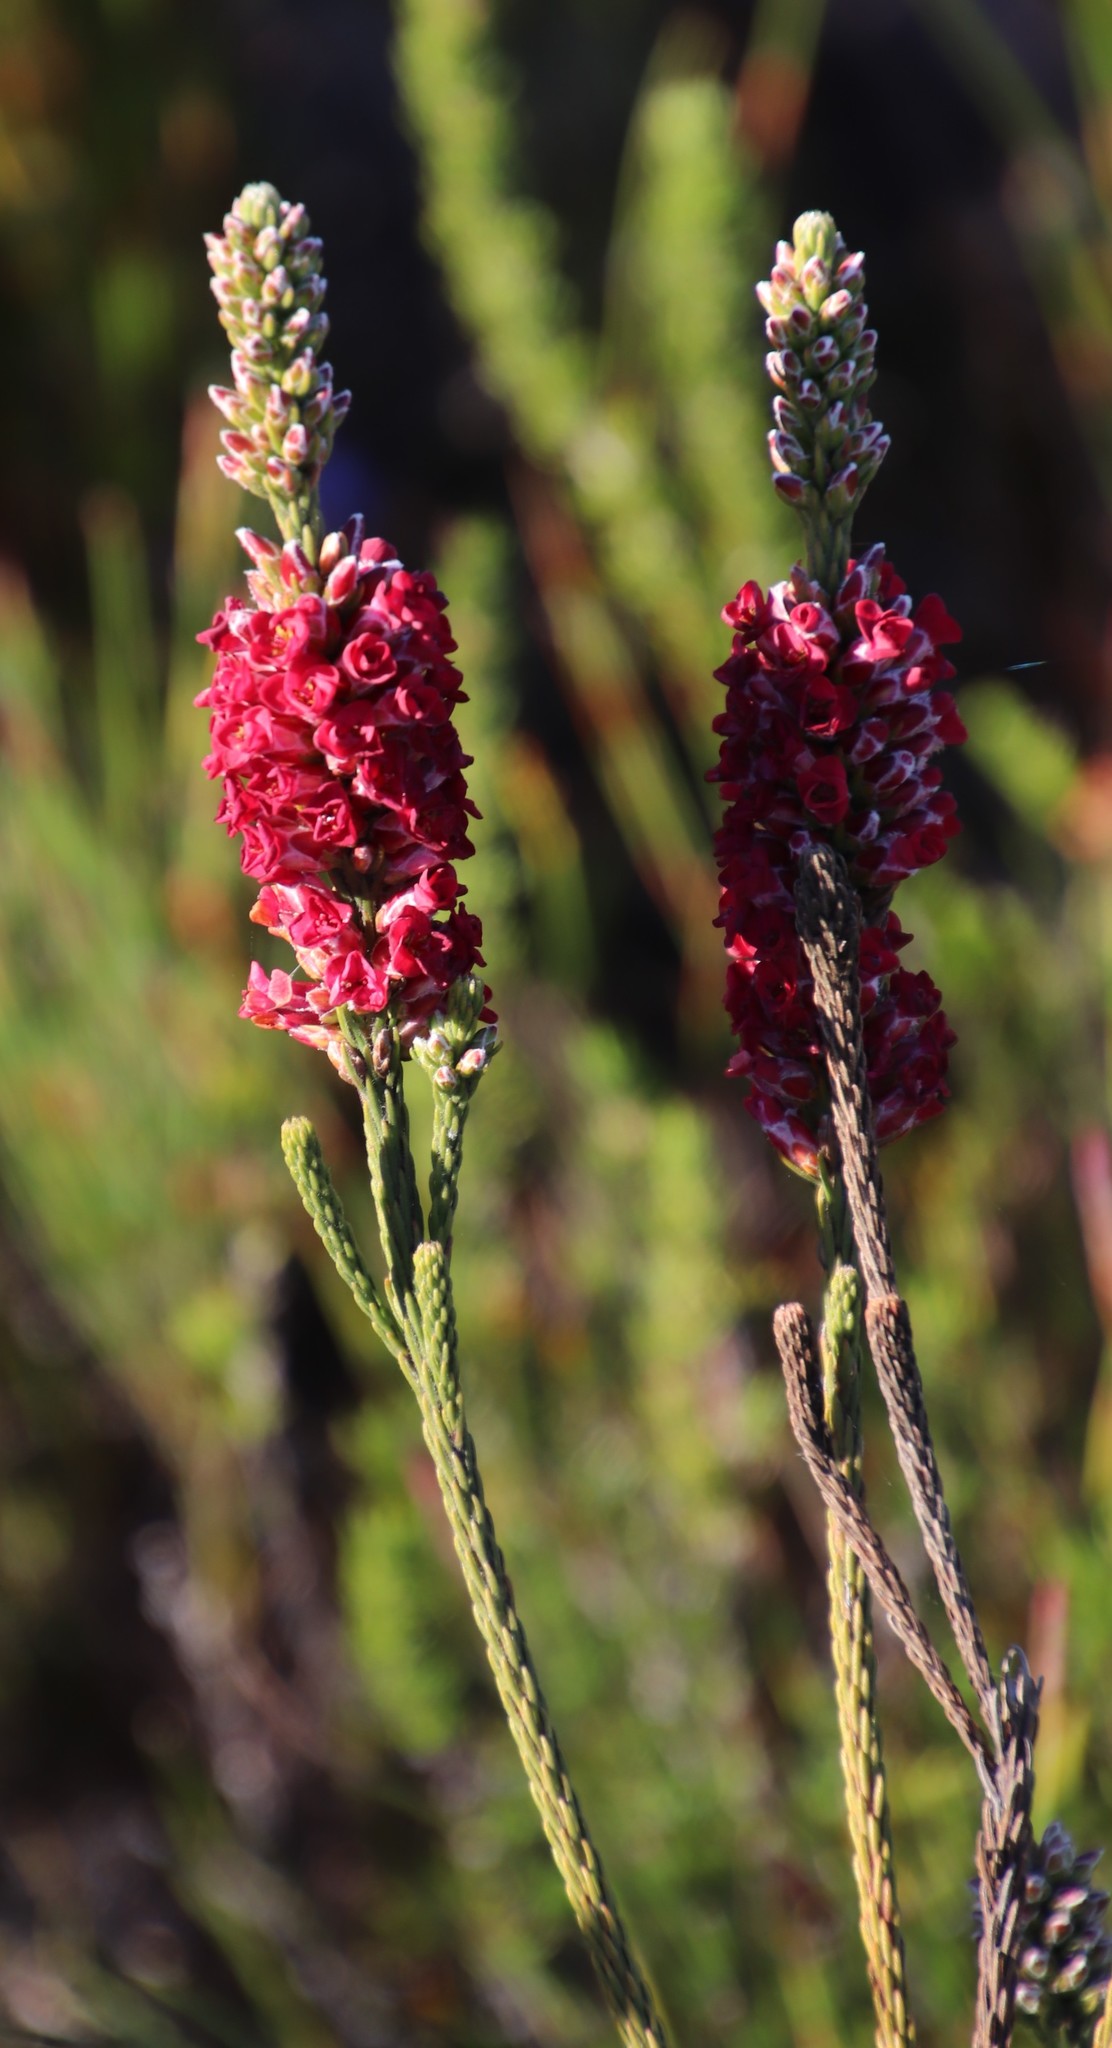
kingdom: Plantae
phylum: Tracheophyta
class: Magnoliopsida
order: Bruniales
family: Bruniaceae
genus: Audouinia
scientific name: Audouinia capitata
